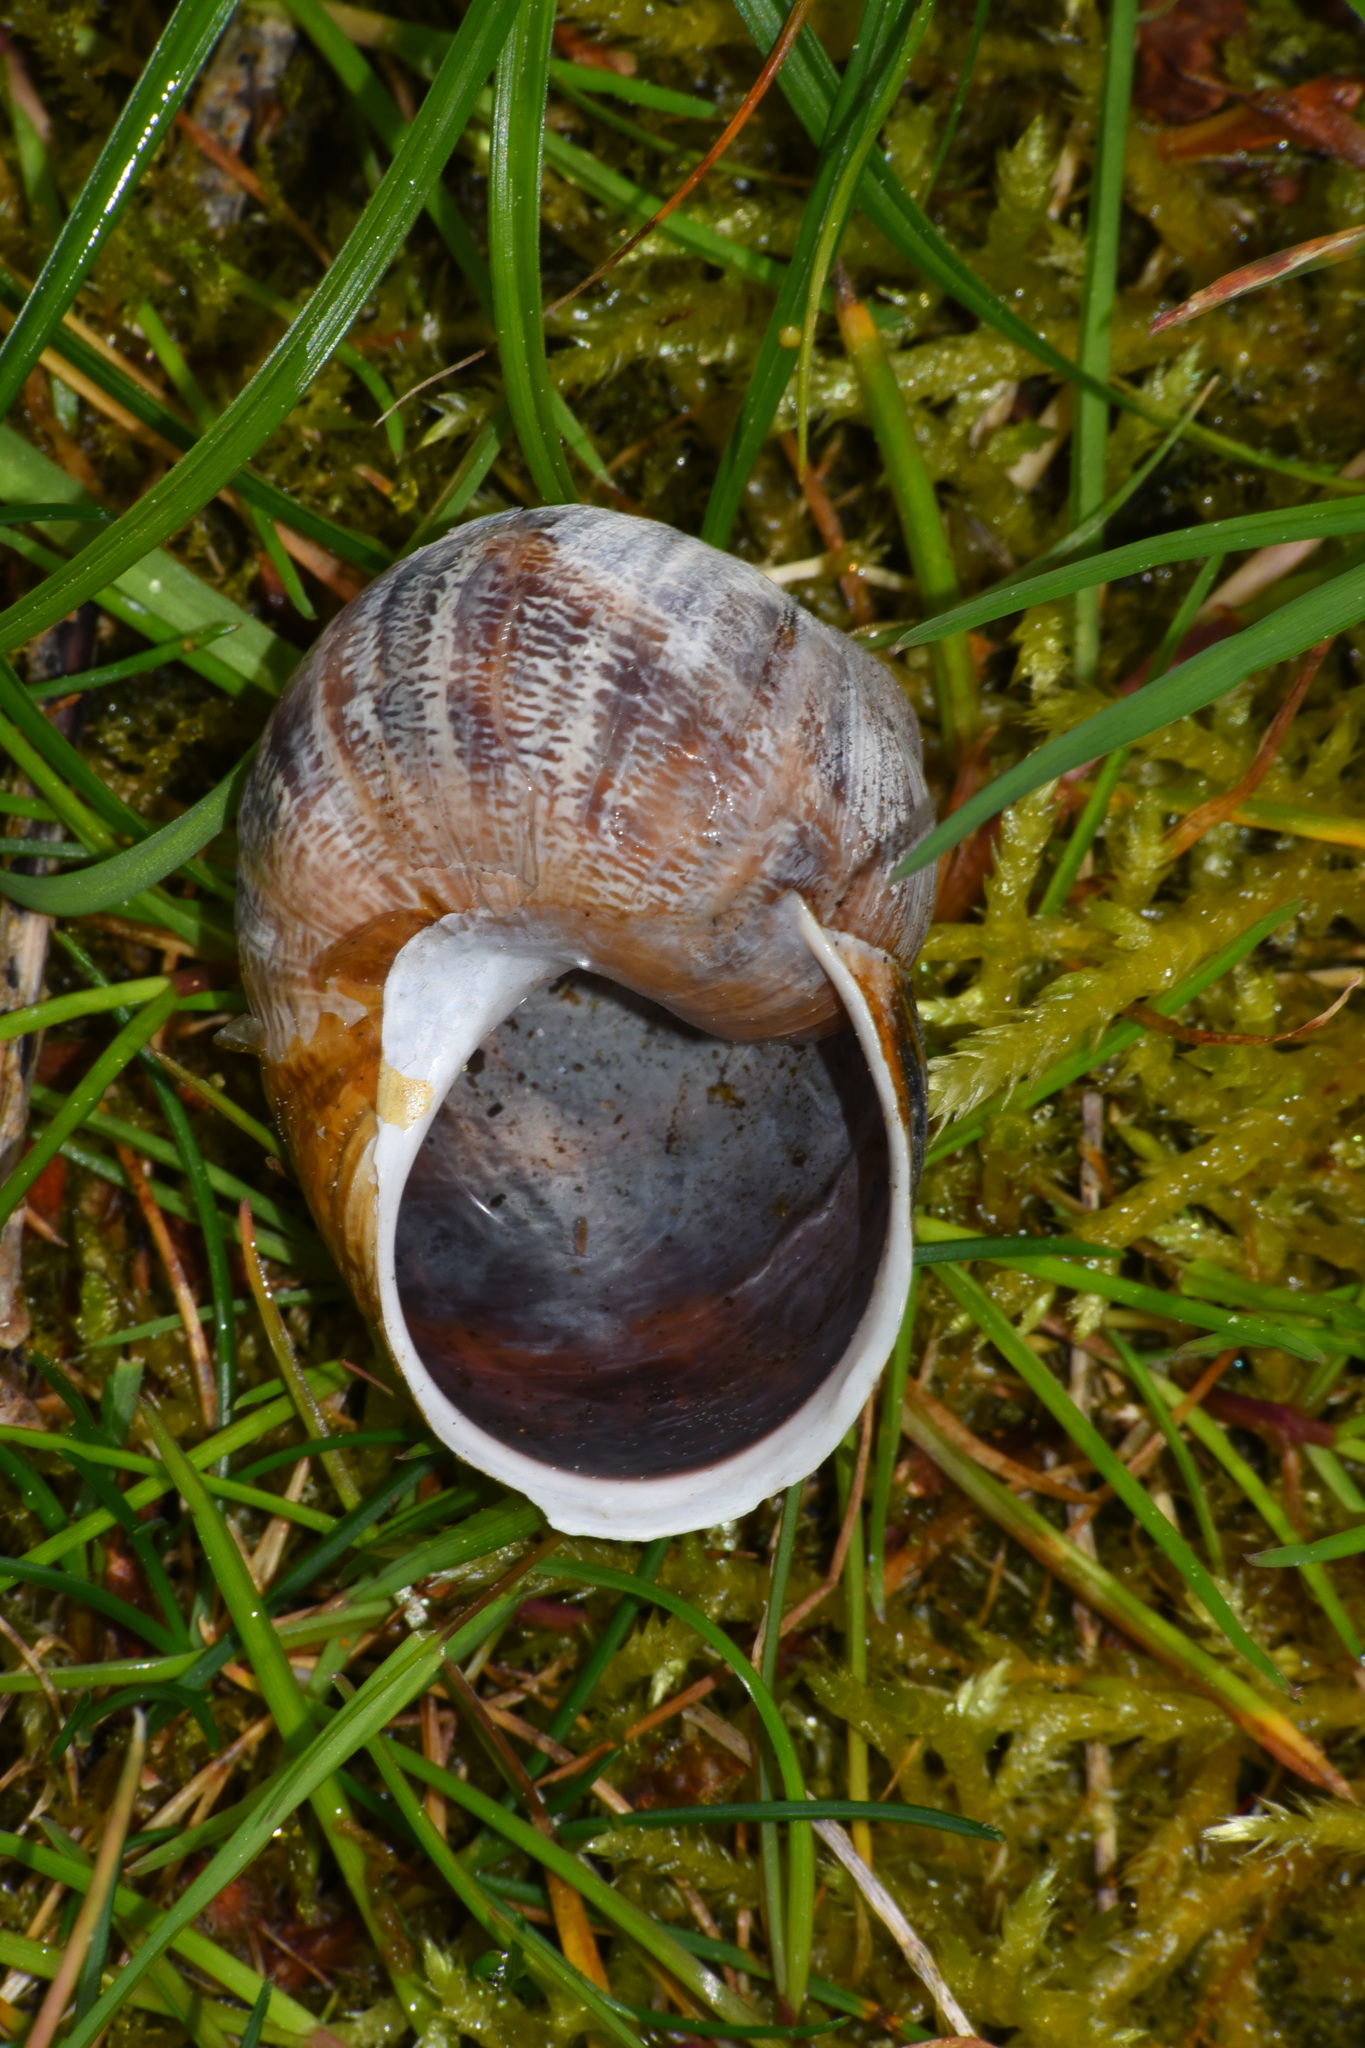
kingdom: Animalia
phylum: Mollusca
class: Gastropoda
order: Stylommatophora
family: Helicidae
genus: Cornu
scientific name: Cornu aspersum
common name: Brown garden snail
